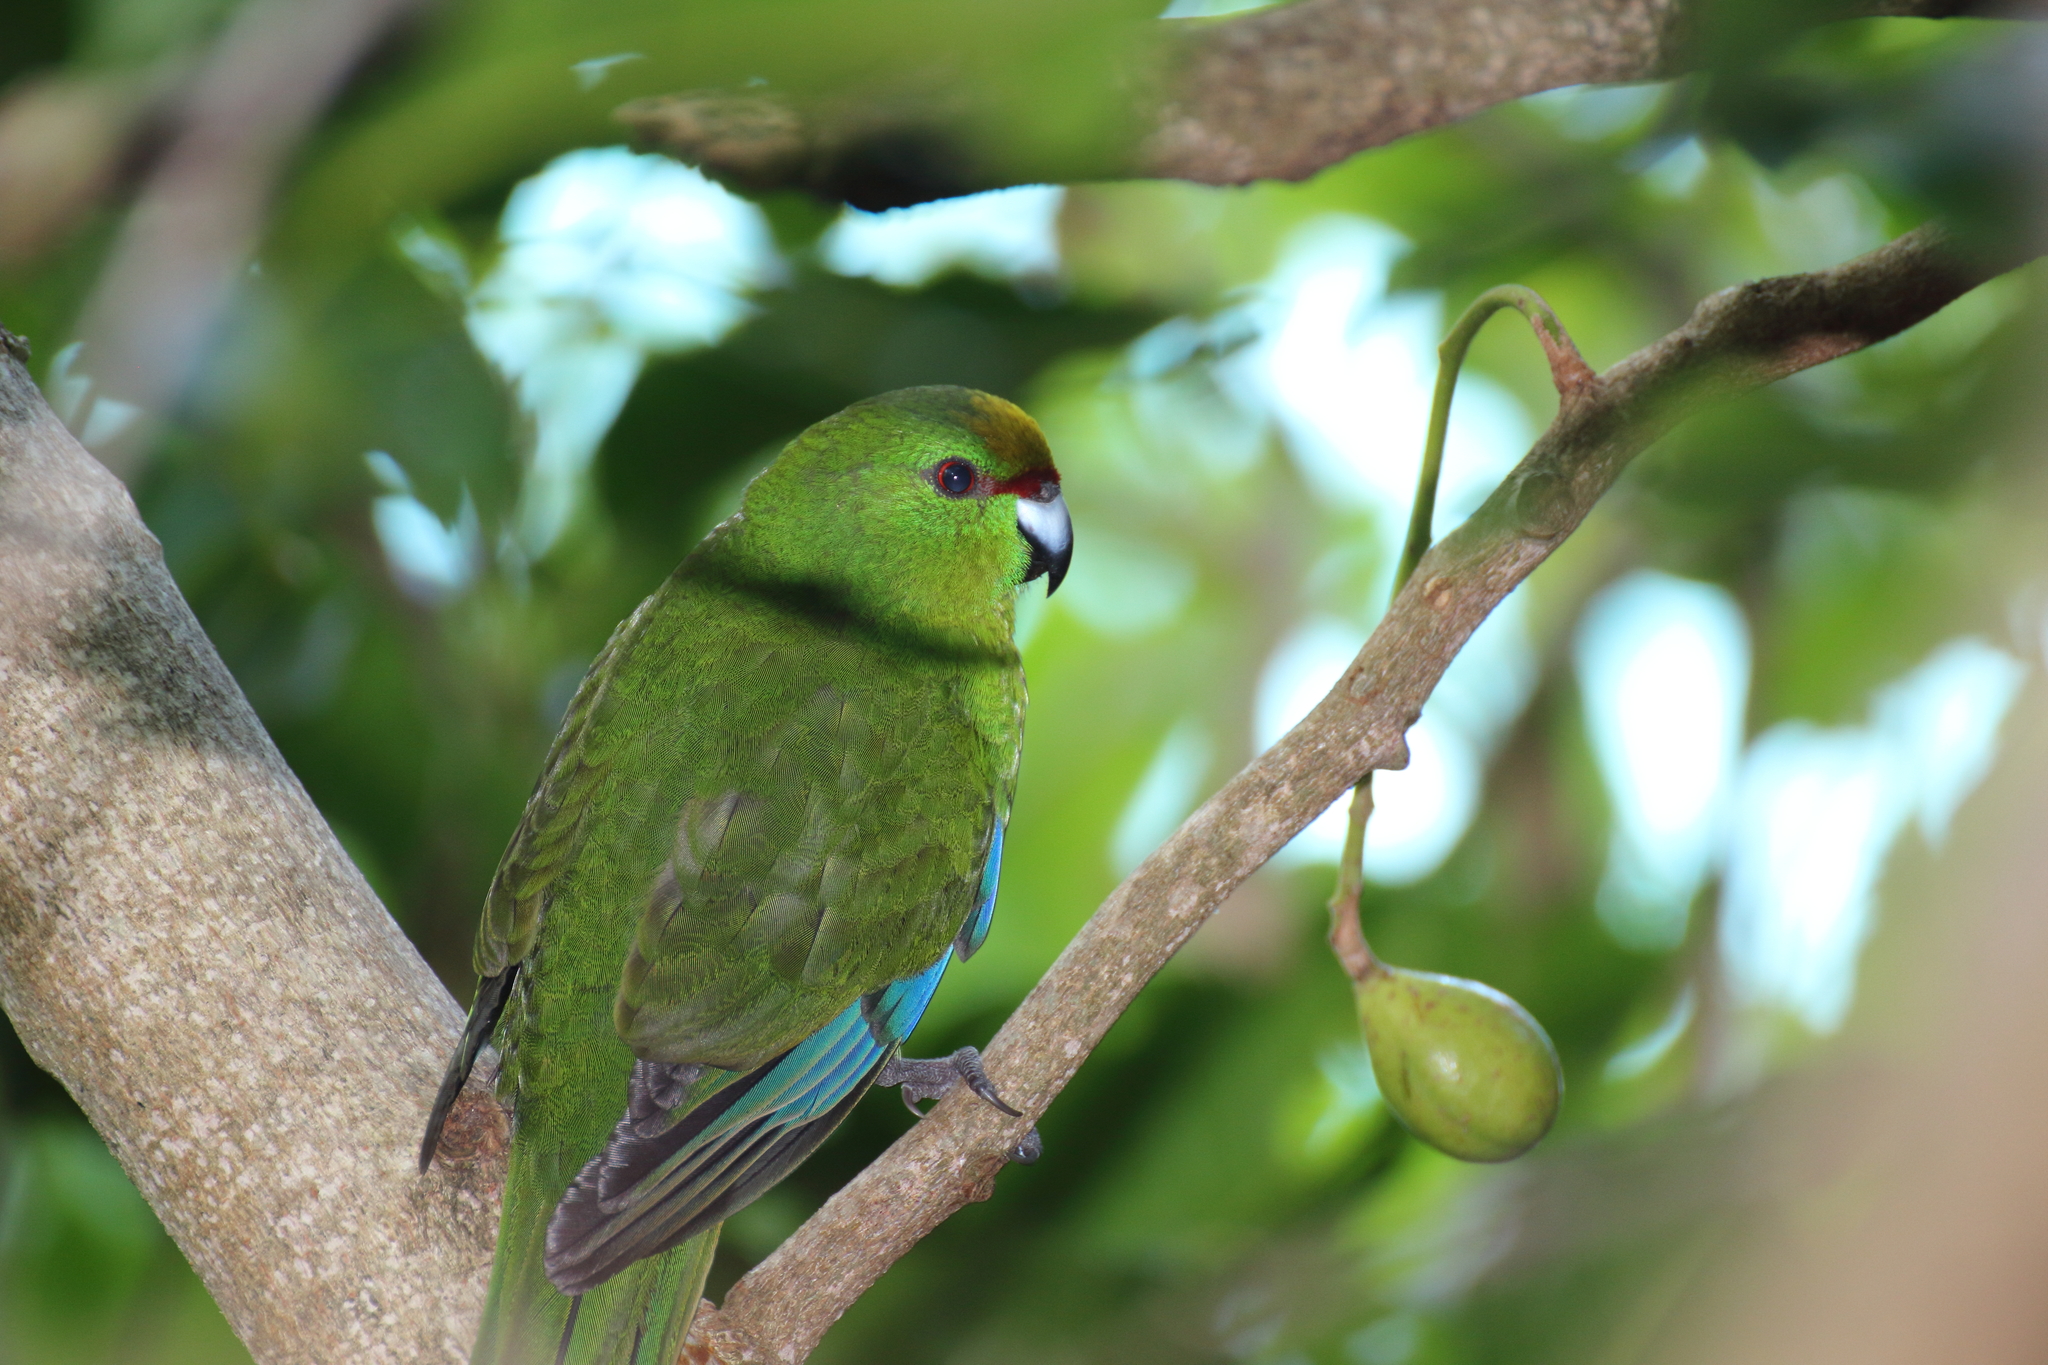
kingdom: Animalia
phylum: Chordata
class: Aves
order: Psittaciformes
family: Psittacidae
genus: Cyanoramphus
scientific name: Cyanoramphus auriceps
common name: Yellow-crowned parakeet
